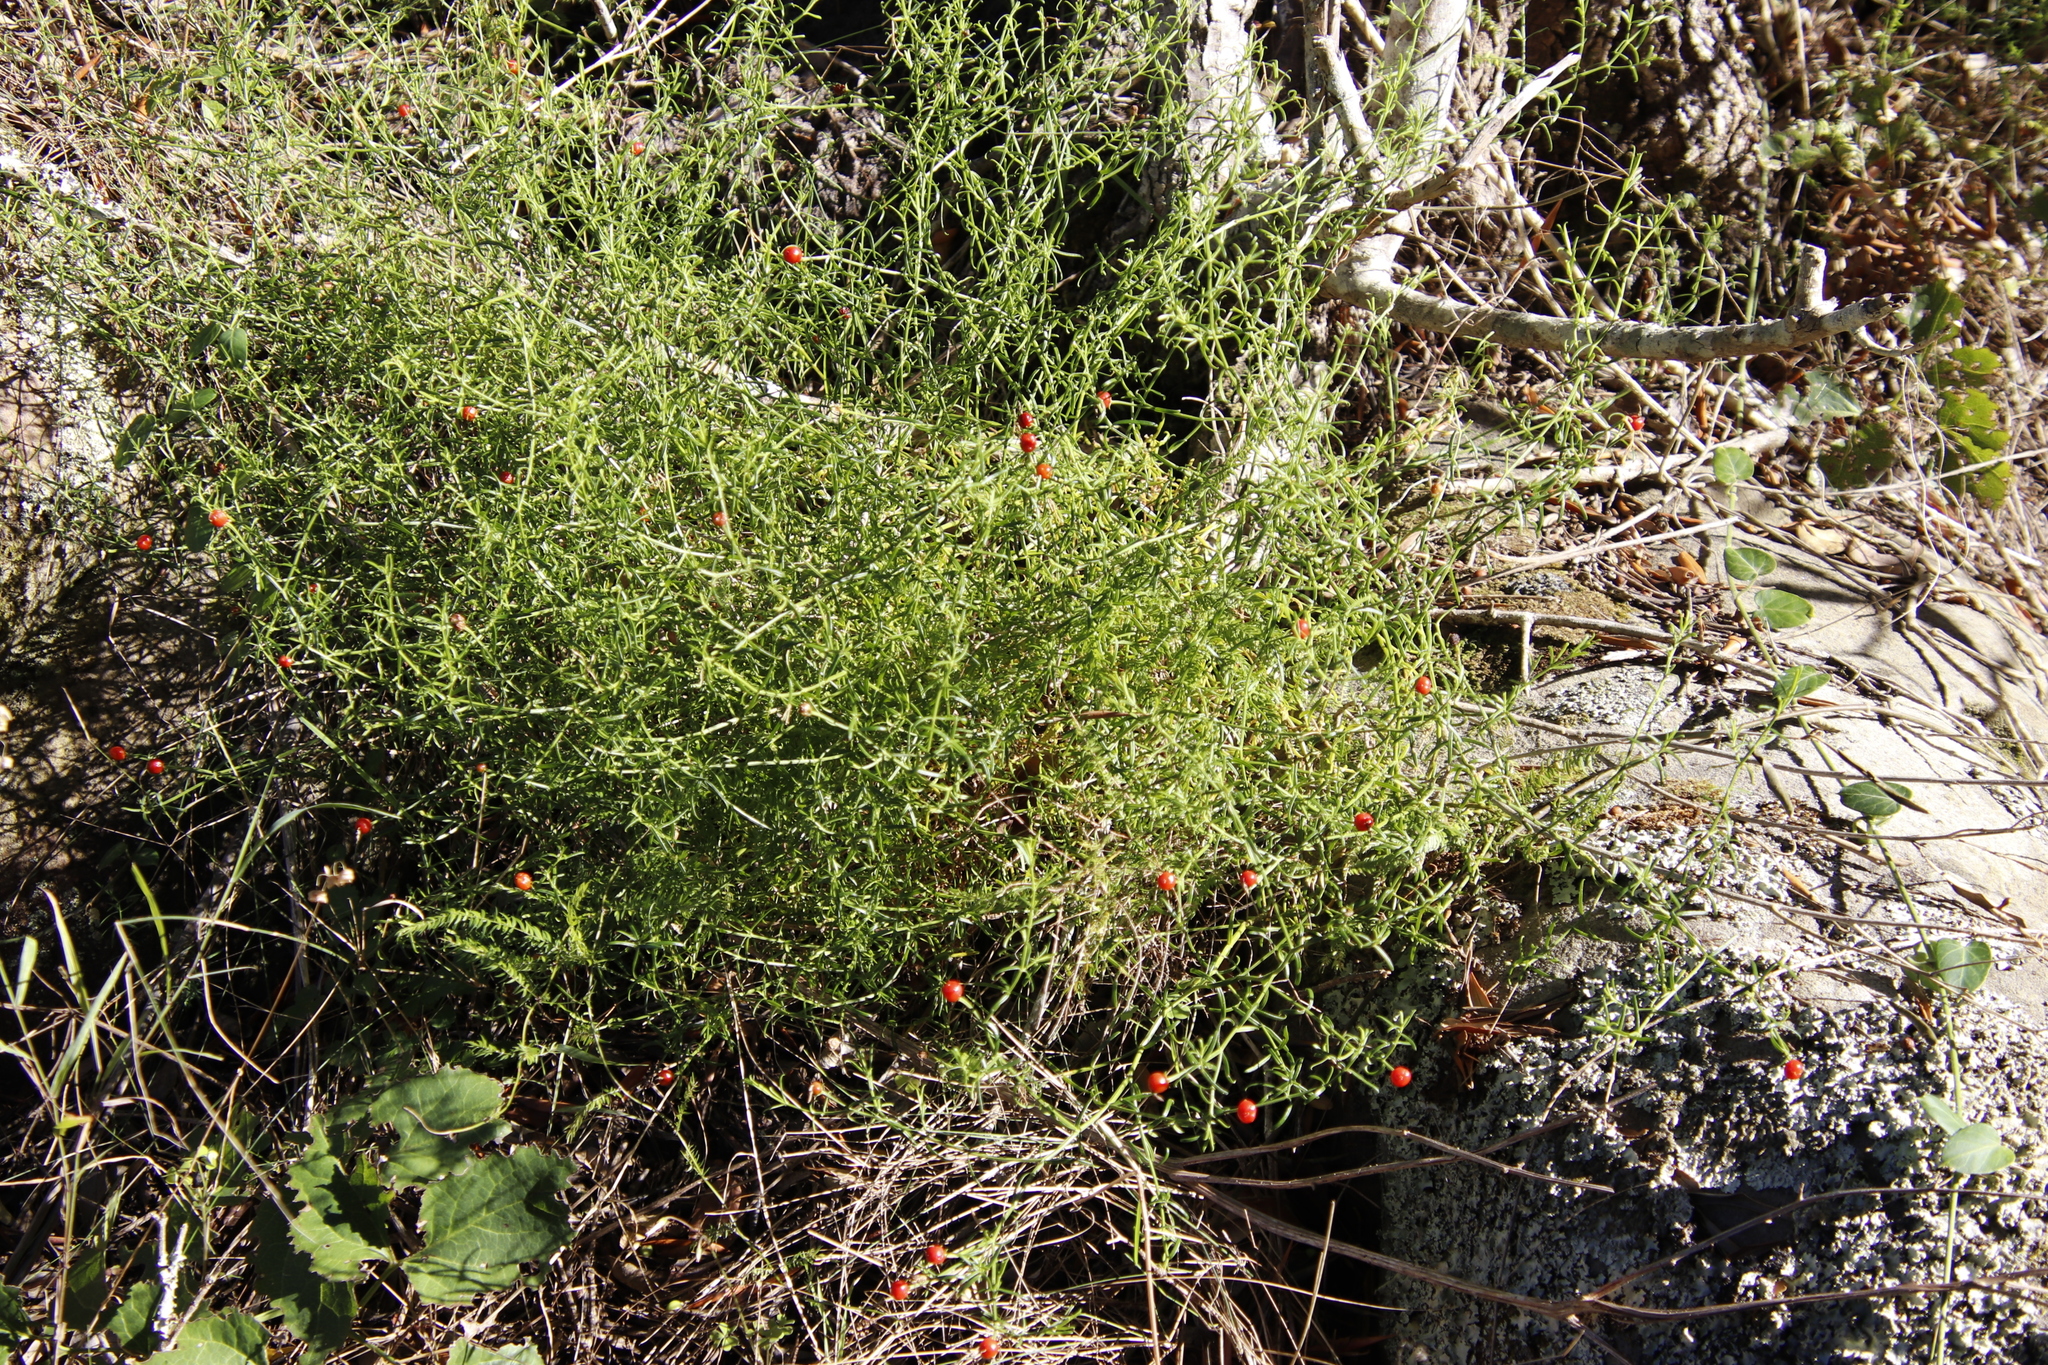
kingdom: Plantae
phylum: Tracheophyta
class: Magnoliopsida
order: Gentianales
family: Gentianaceae
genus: Chironia
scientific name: Chironia baccifera
